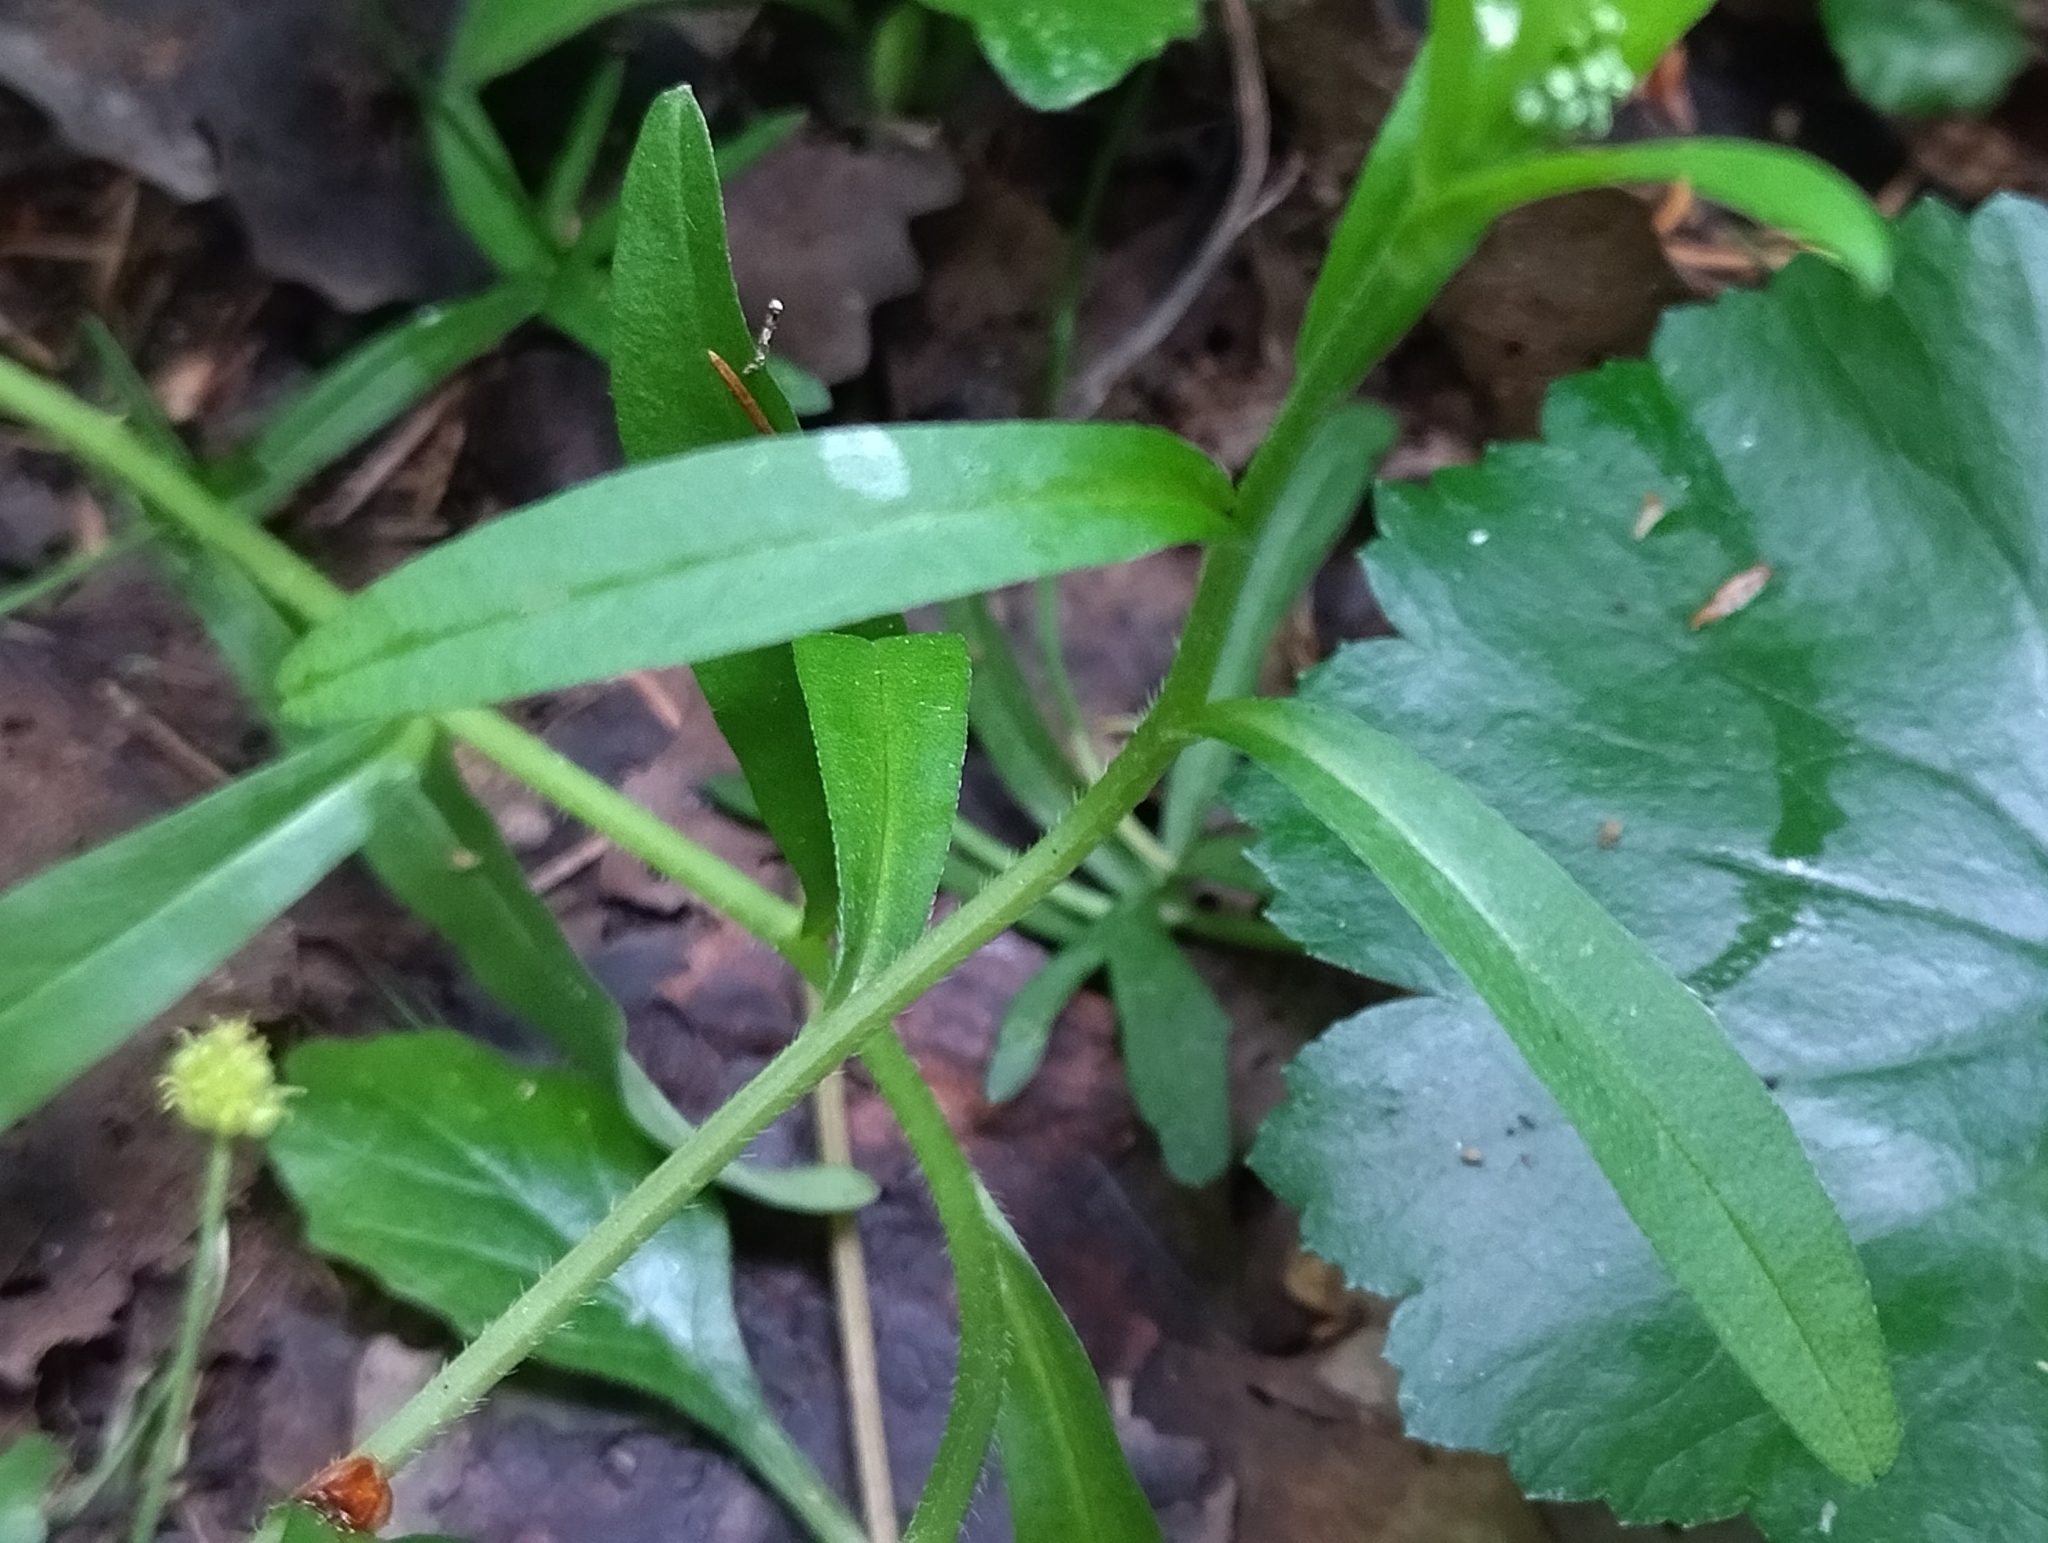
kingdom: Plantae
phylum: Tracheophyta
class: Magnoliopsida
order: Boraginales
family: Boraginaceae
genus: Myosotis
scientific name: Myosotis scorpioides
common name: Water forget-me-not
